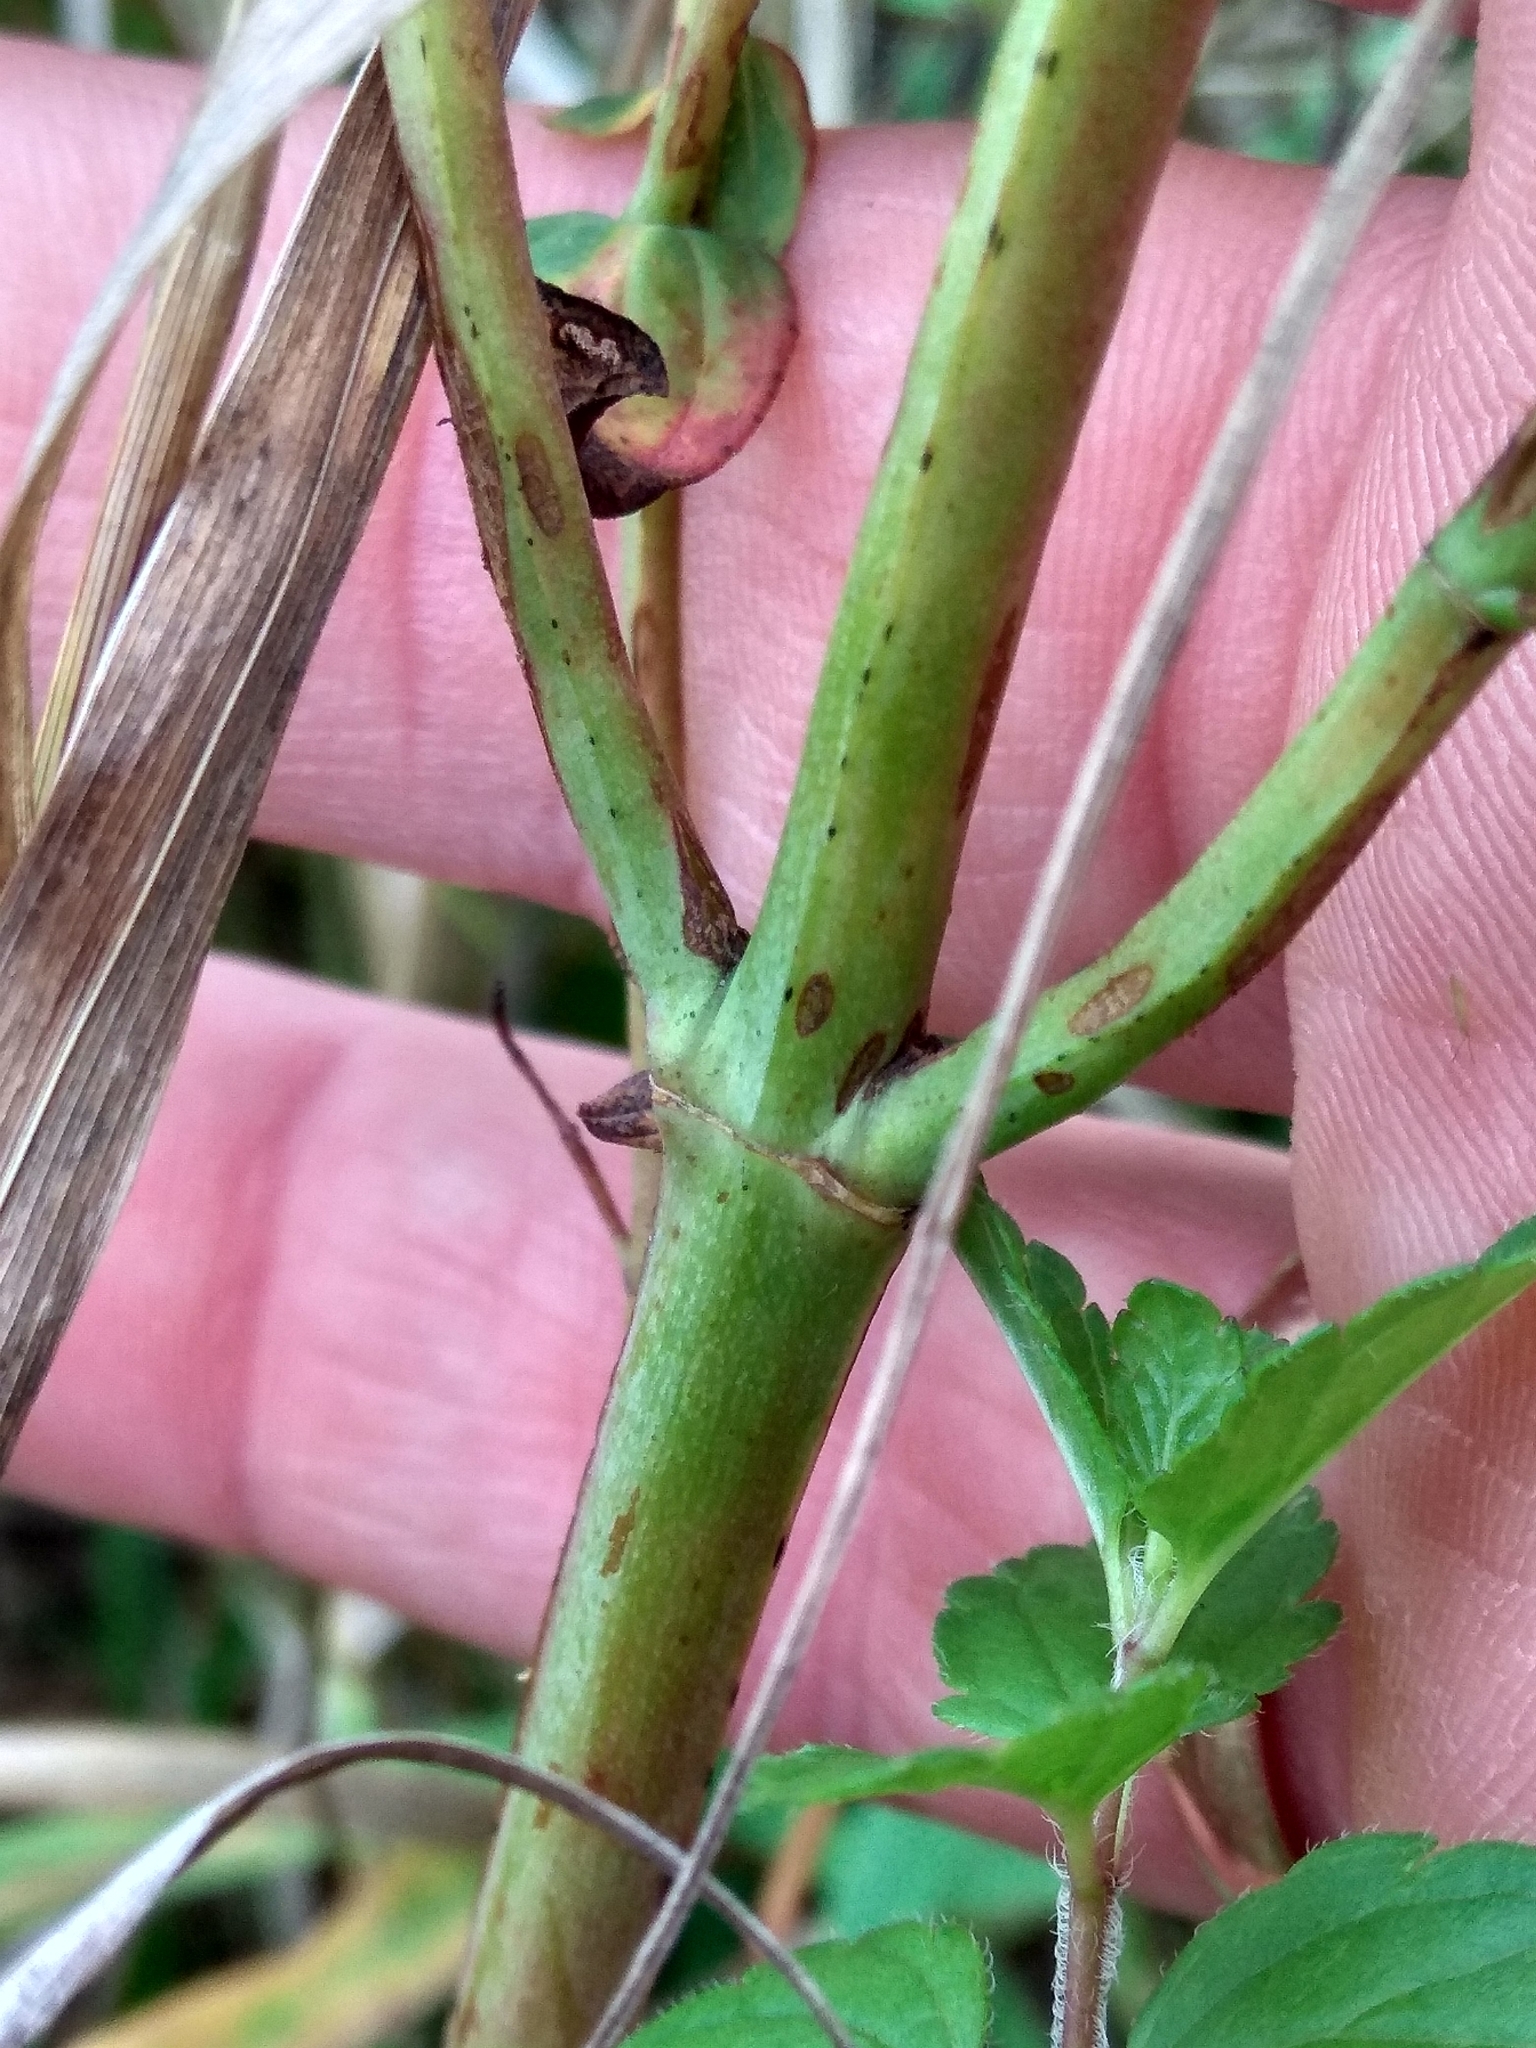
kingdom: Plantae
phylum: Tracheophyta
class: Magnoliopsida
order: Malpighiales
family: Hypericaceae
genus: Hypericum
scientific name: Hypericum perforatum
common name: Common st. johnswort
